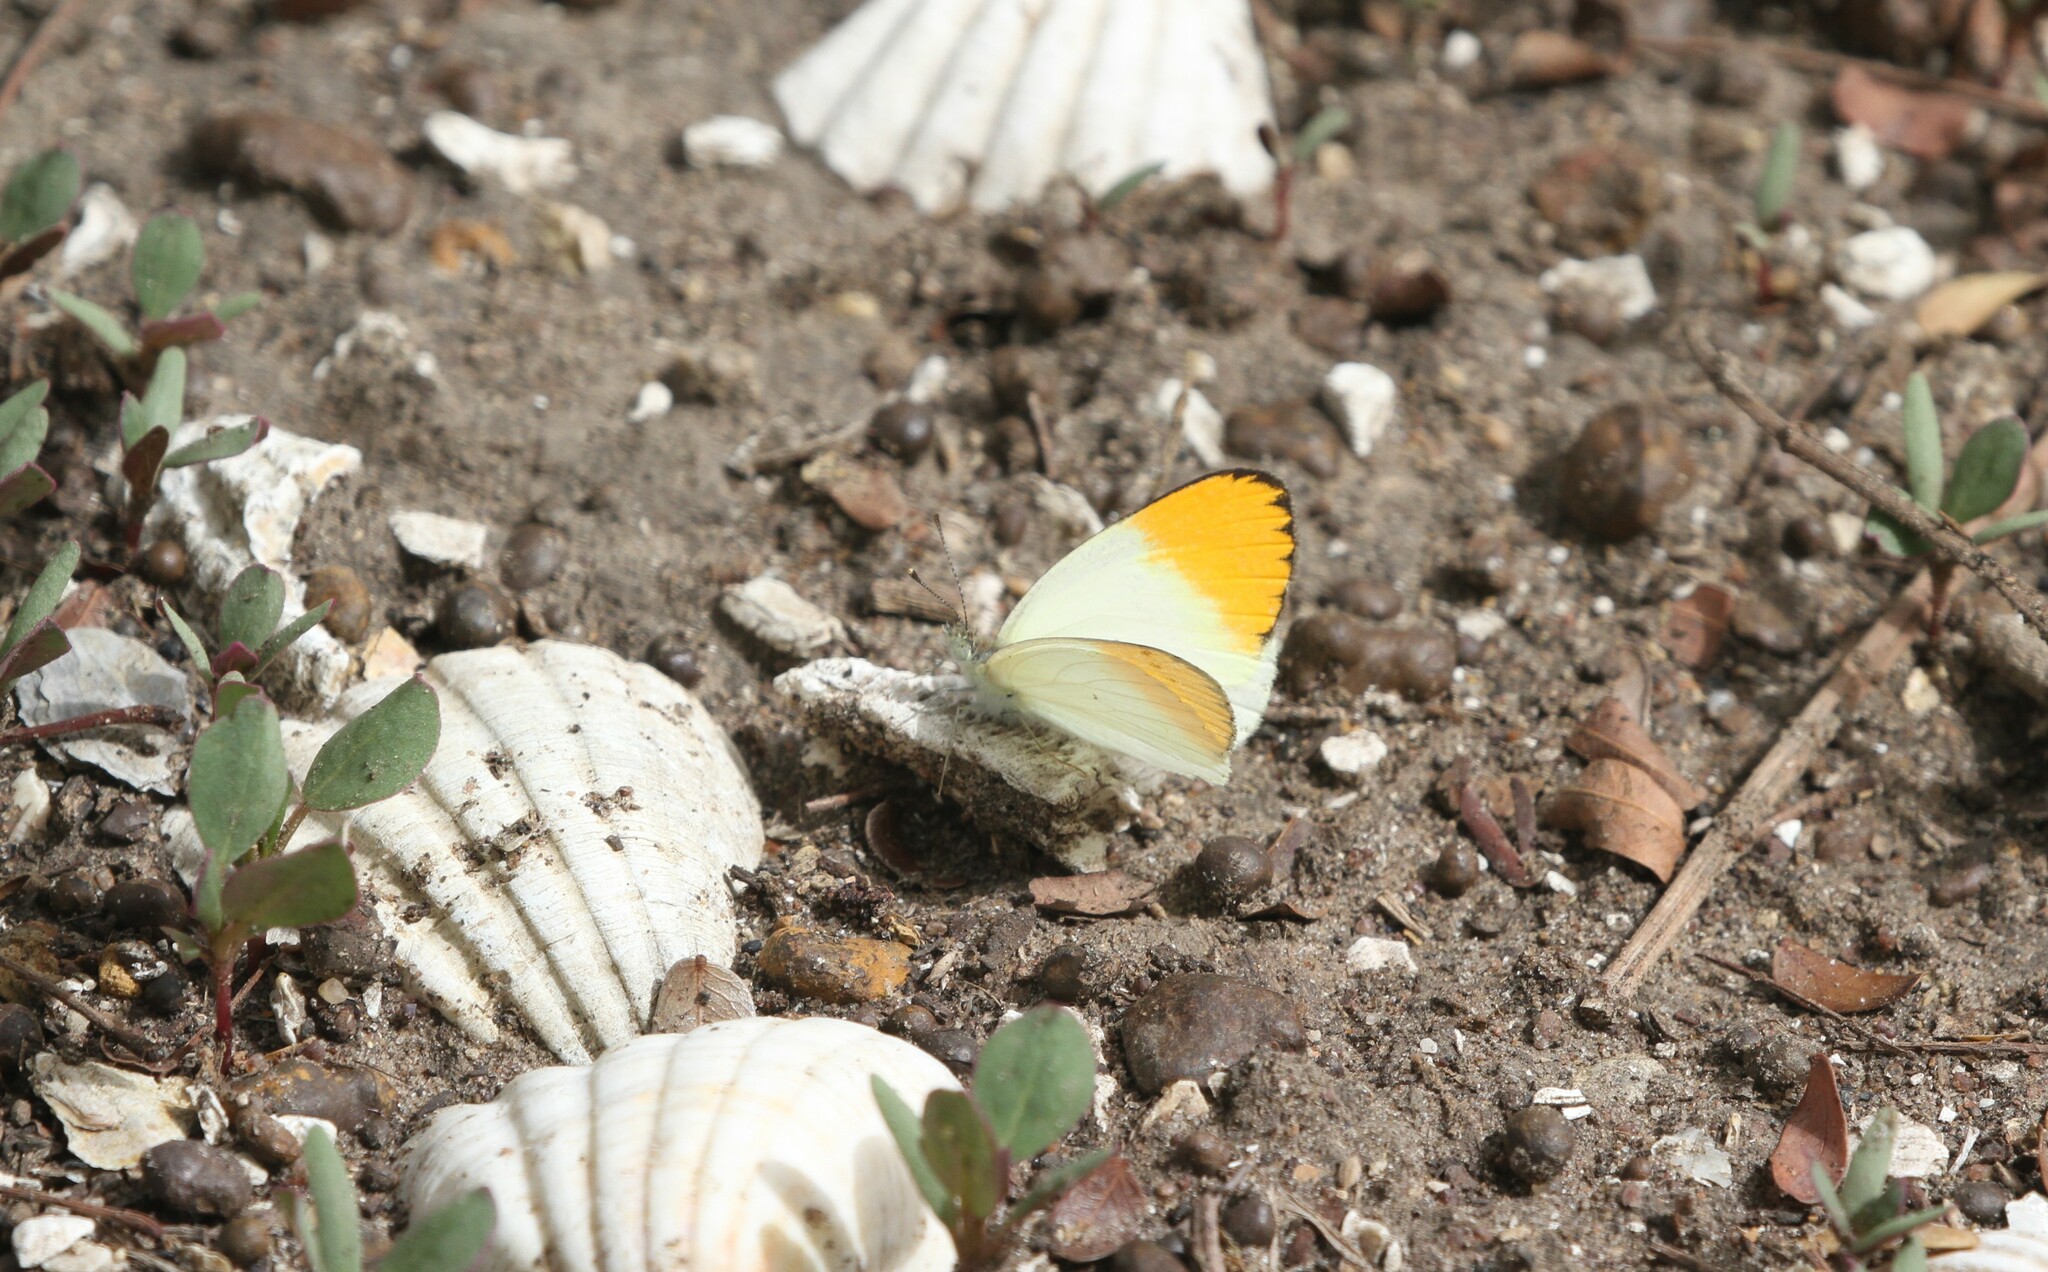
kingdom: Animalia
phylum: Arthropoda
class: Insecta
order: Lepidoptera
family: Pieridae
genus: Colotis
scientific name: Colotis aurora
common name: Plain orange-tip
